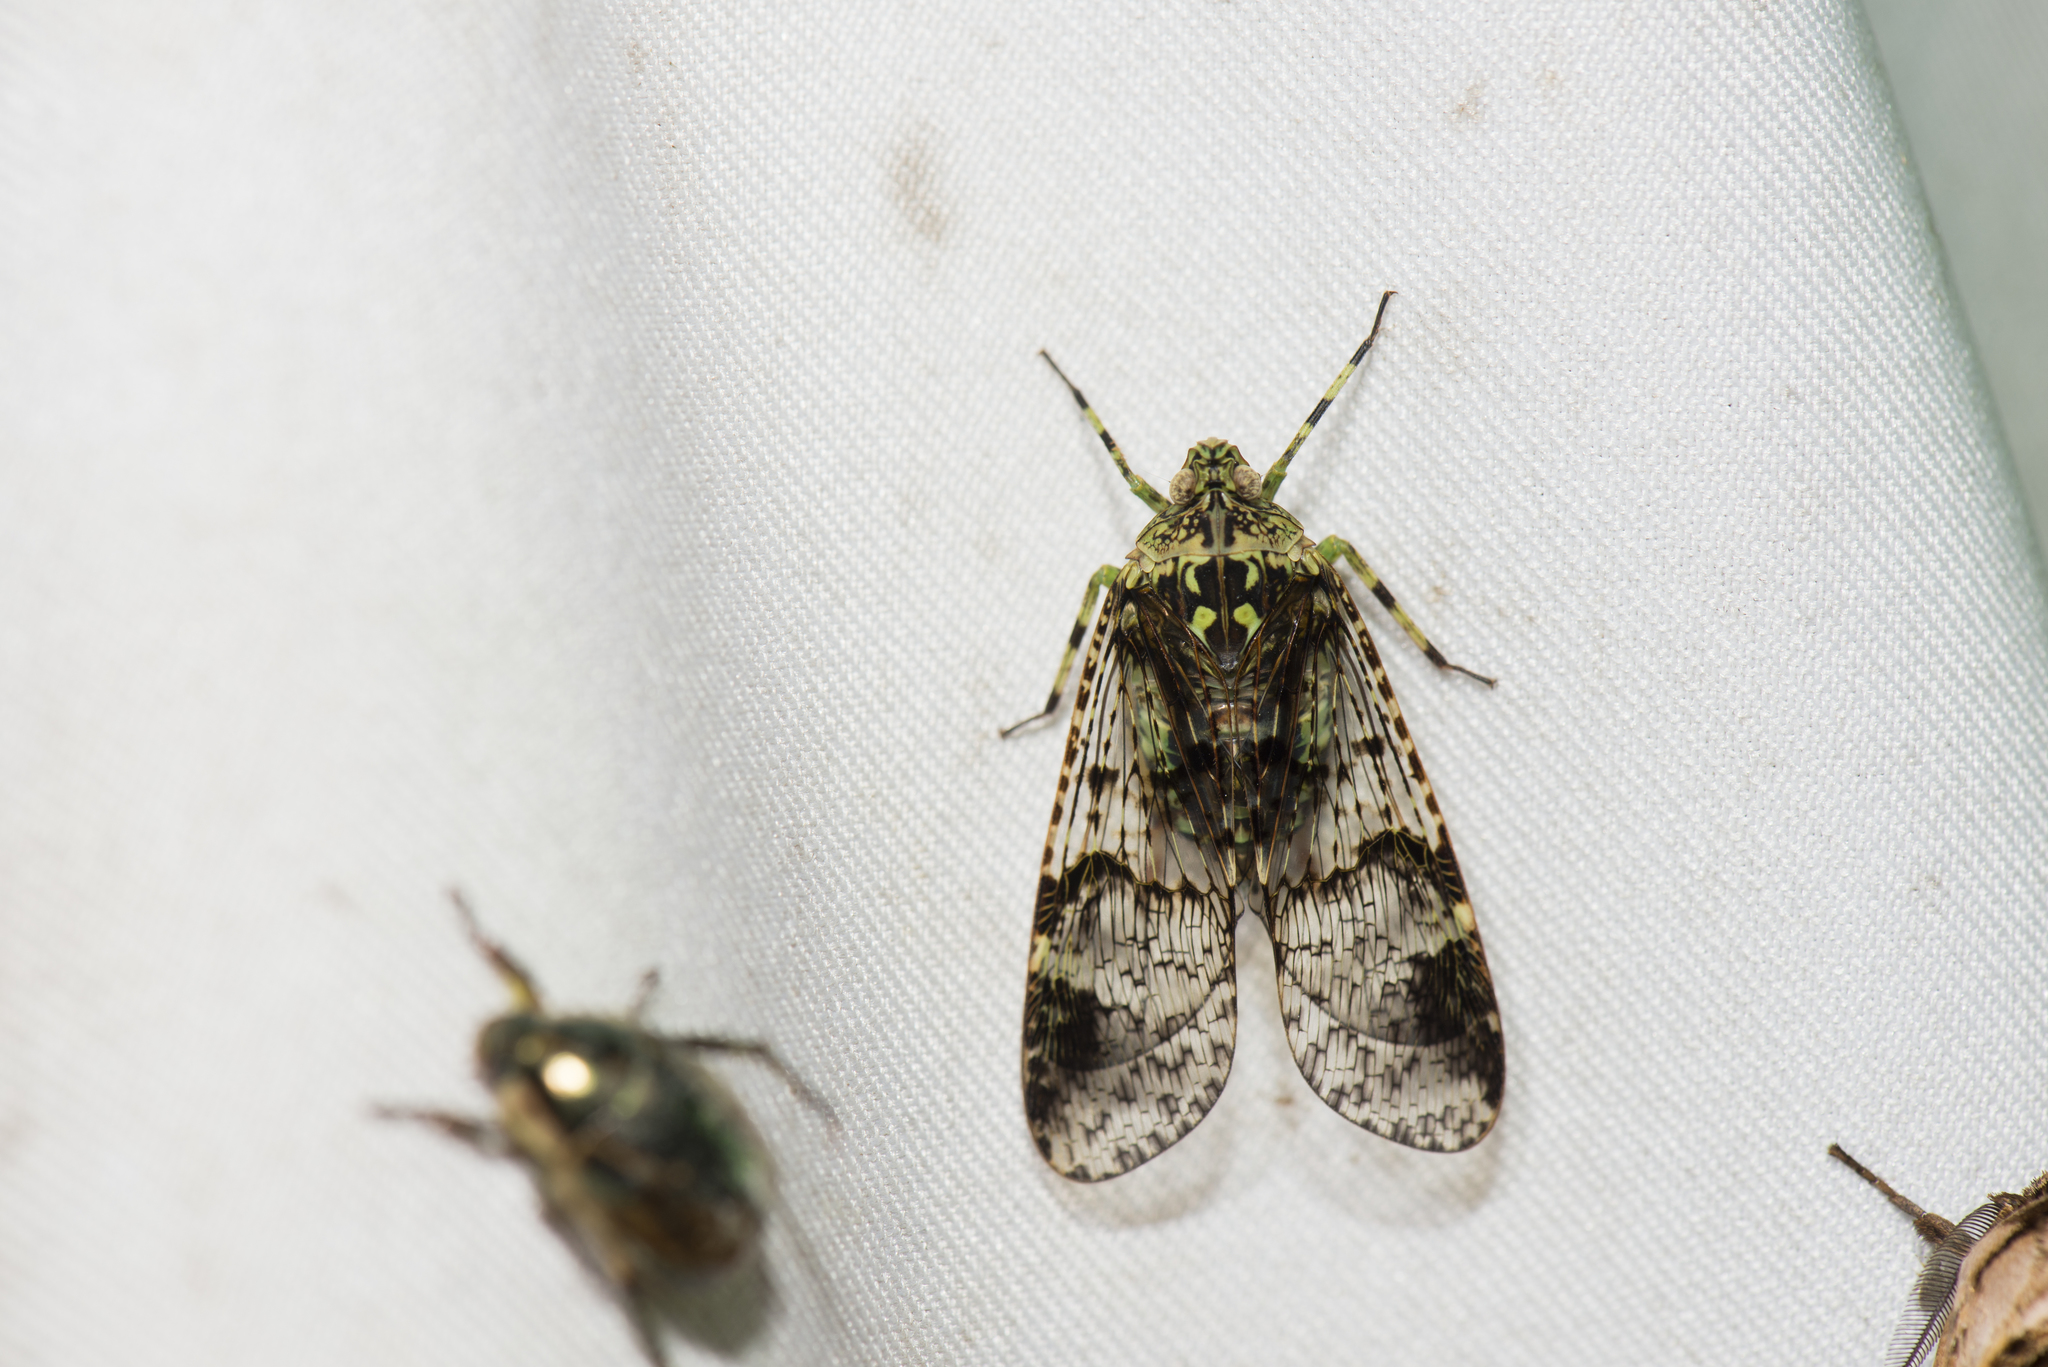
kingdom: Animalia
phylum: Arthropoda
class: Insecta
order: Hemiptera
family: Fulgoridae
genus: Dichoptera
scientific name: Dichoptera similis
